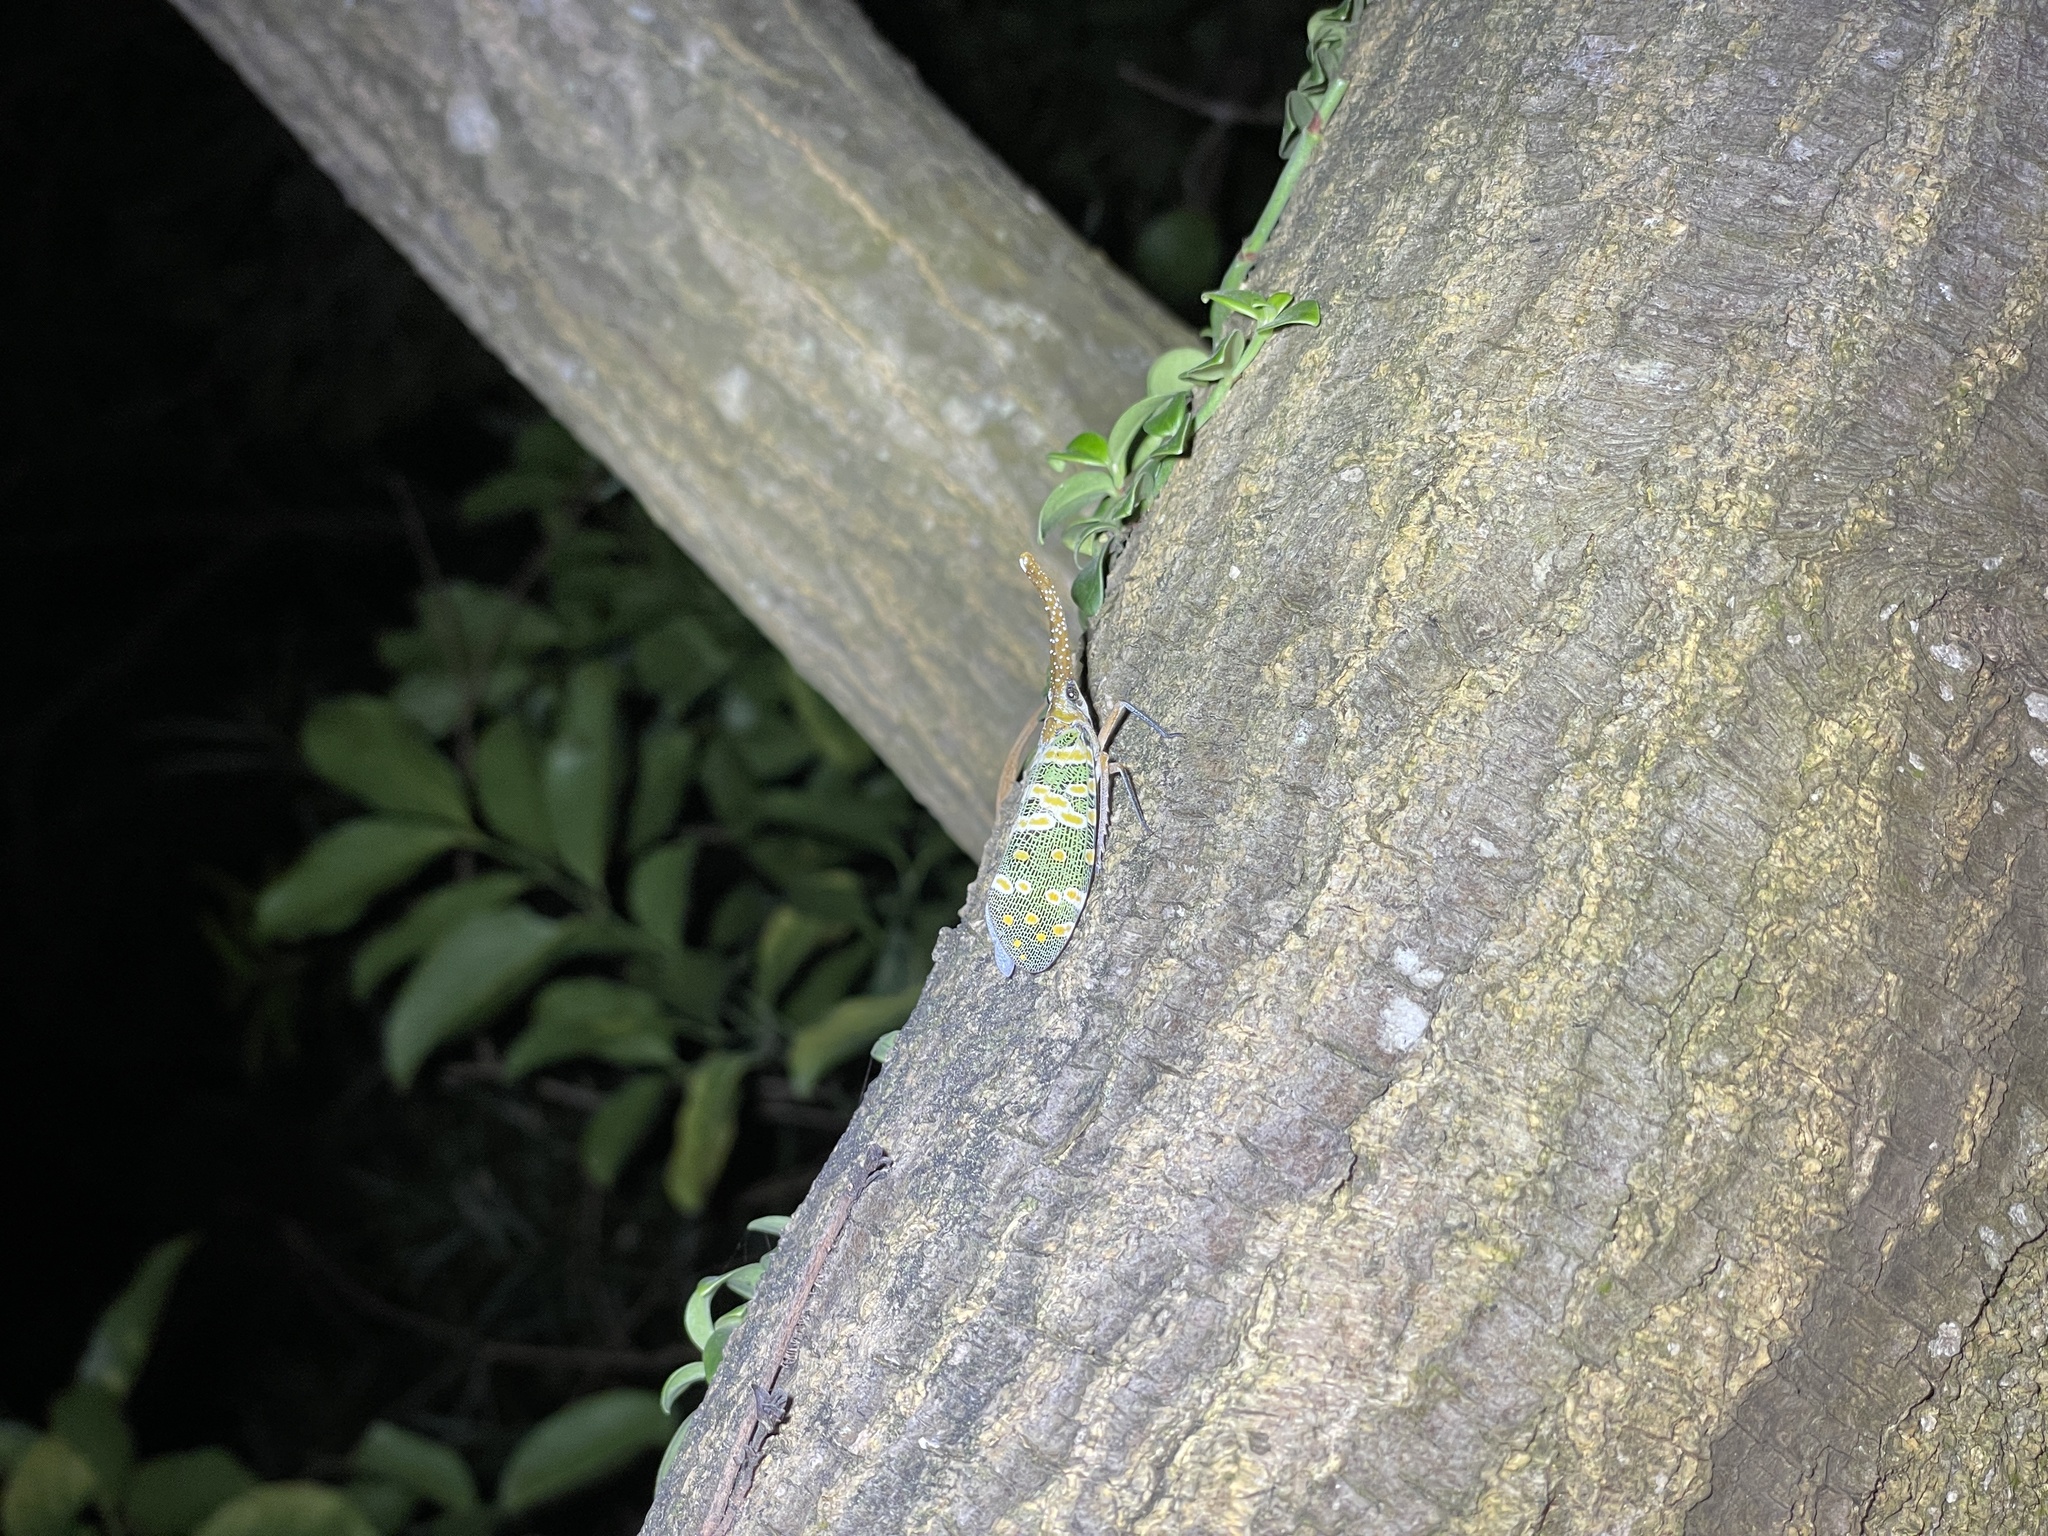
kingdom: Animalia
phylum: Arthropoda
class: Insecta
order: Hemiptera
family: Fulgoridae
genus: Pyrops
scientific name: Pyrops candelaria
